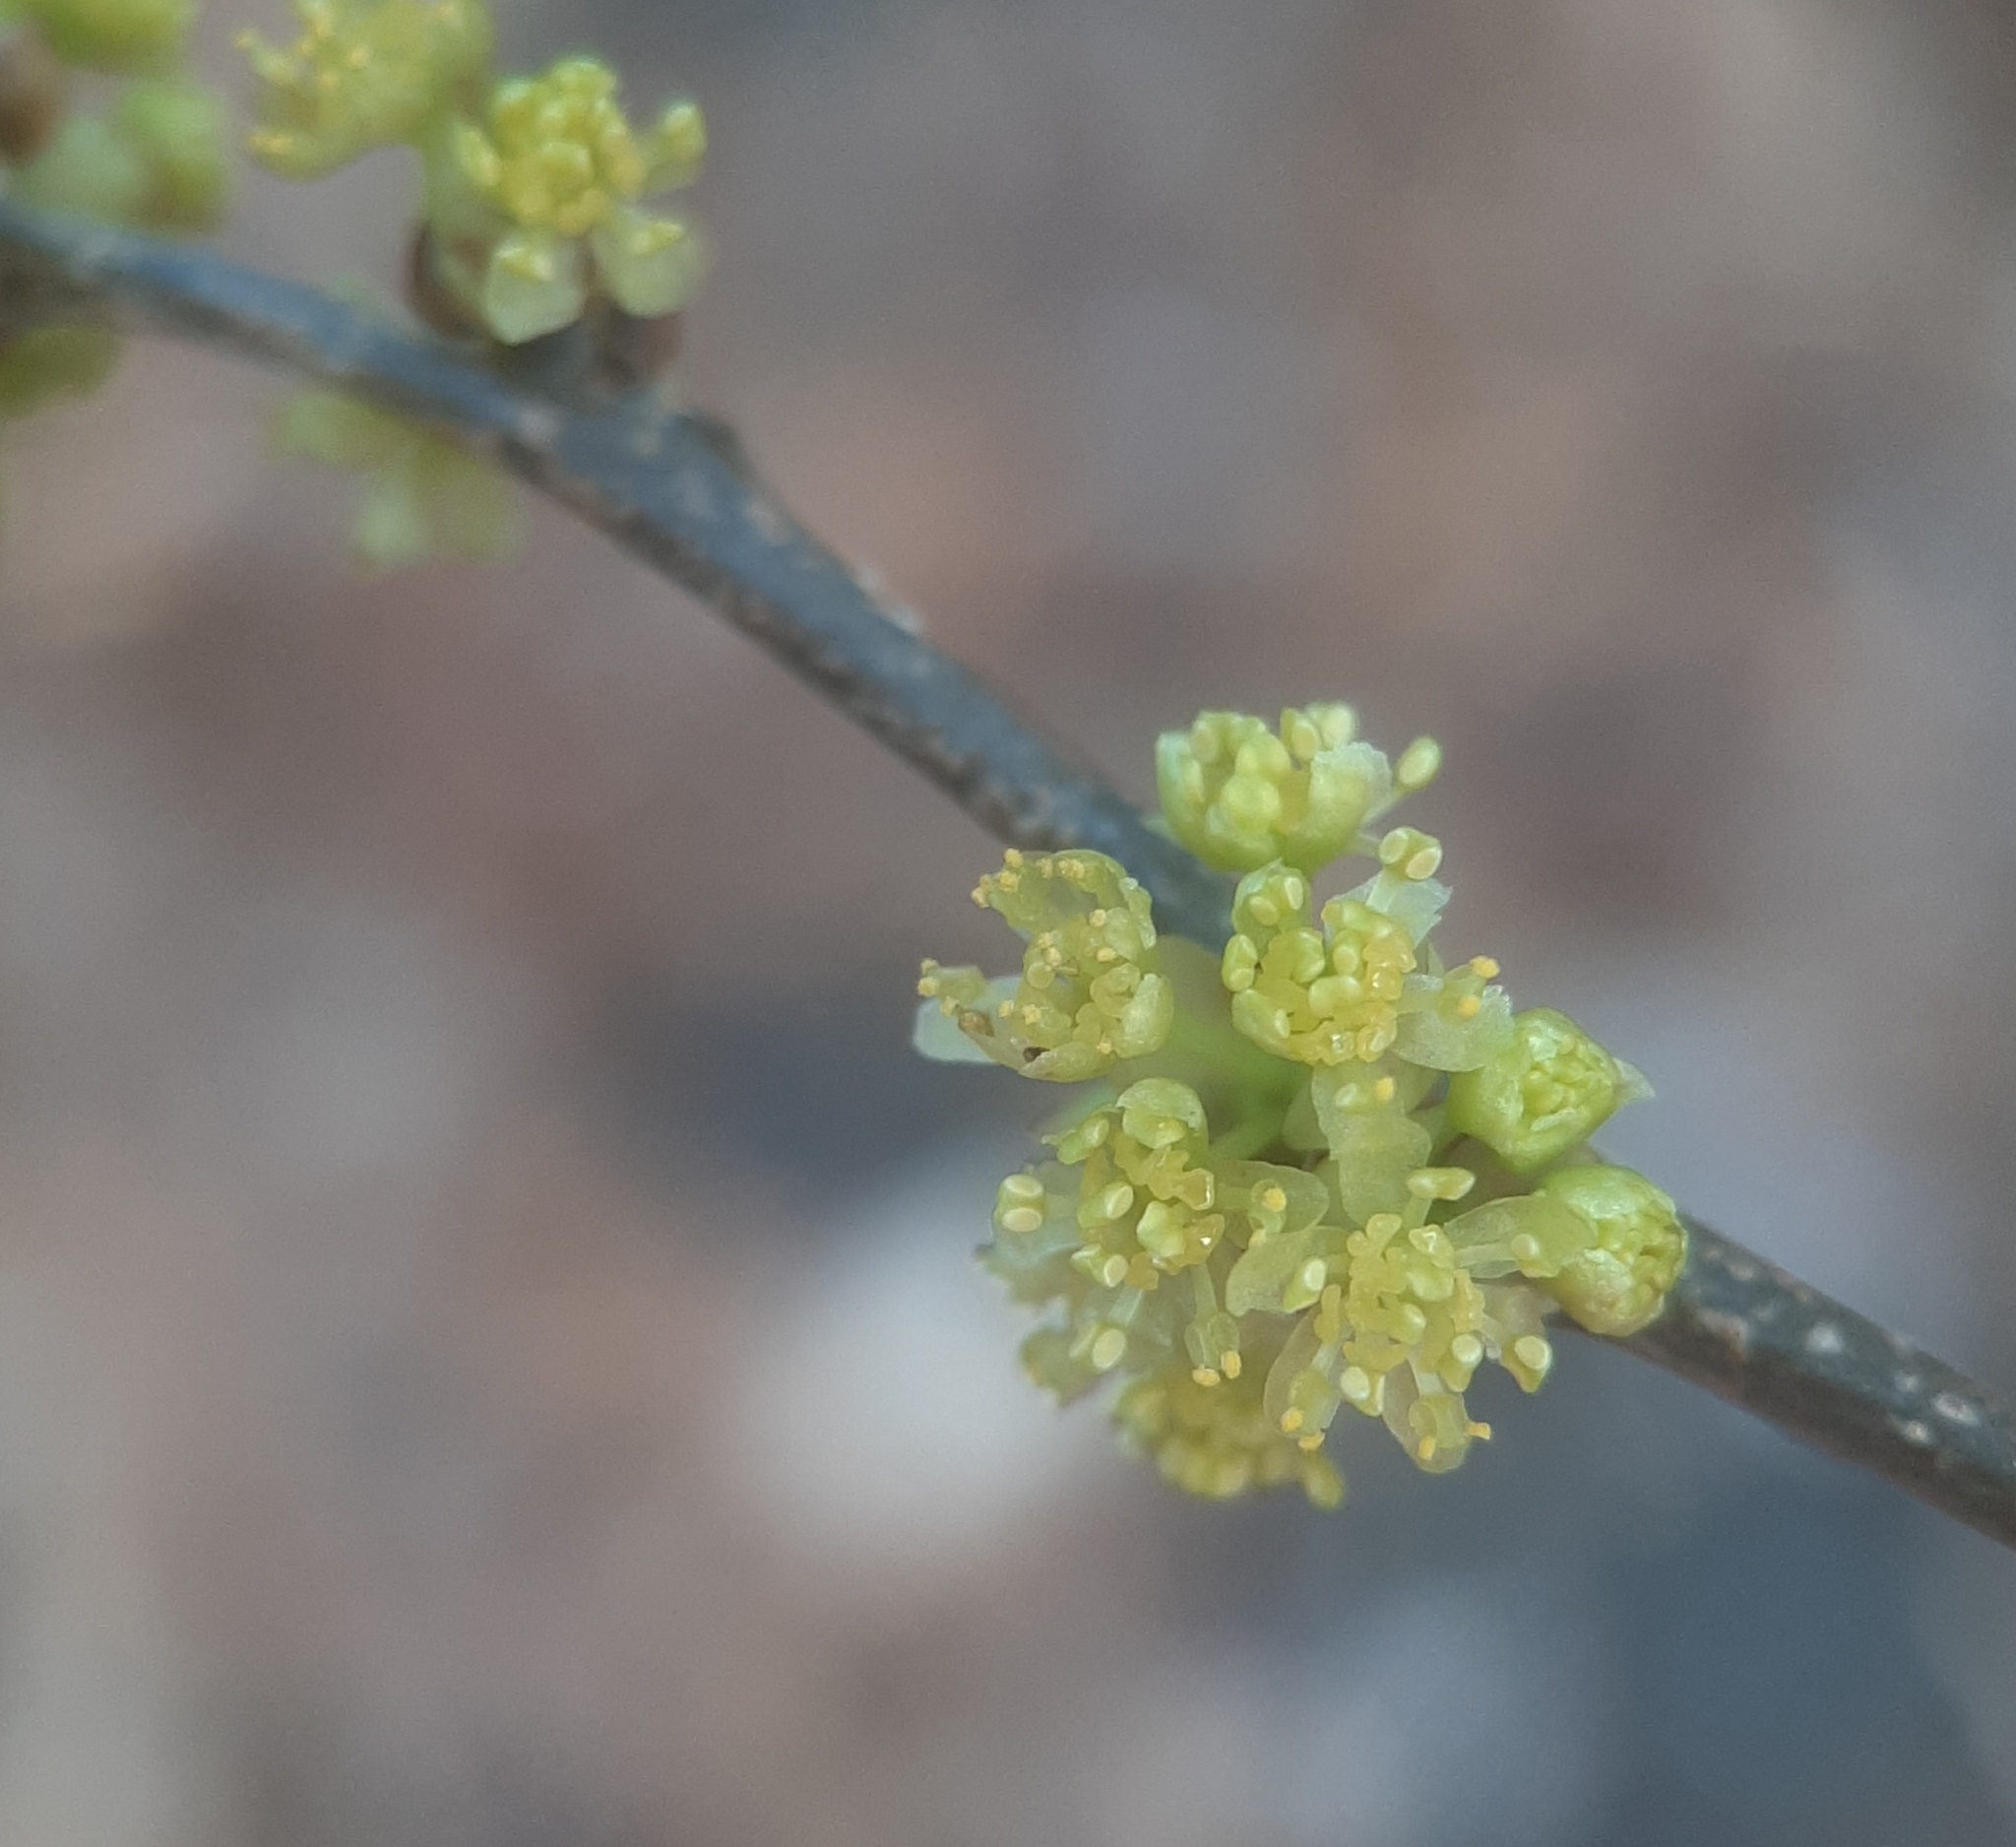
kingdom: Plantae
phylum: Tracheophyta
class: Magnoliopsida
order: Laurales
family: Lauraceae
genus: Lindera
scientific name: Lindera benzoin
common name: Spicebush
